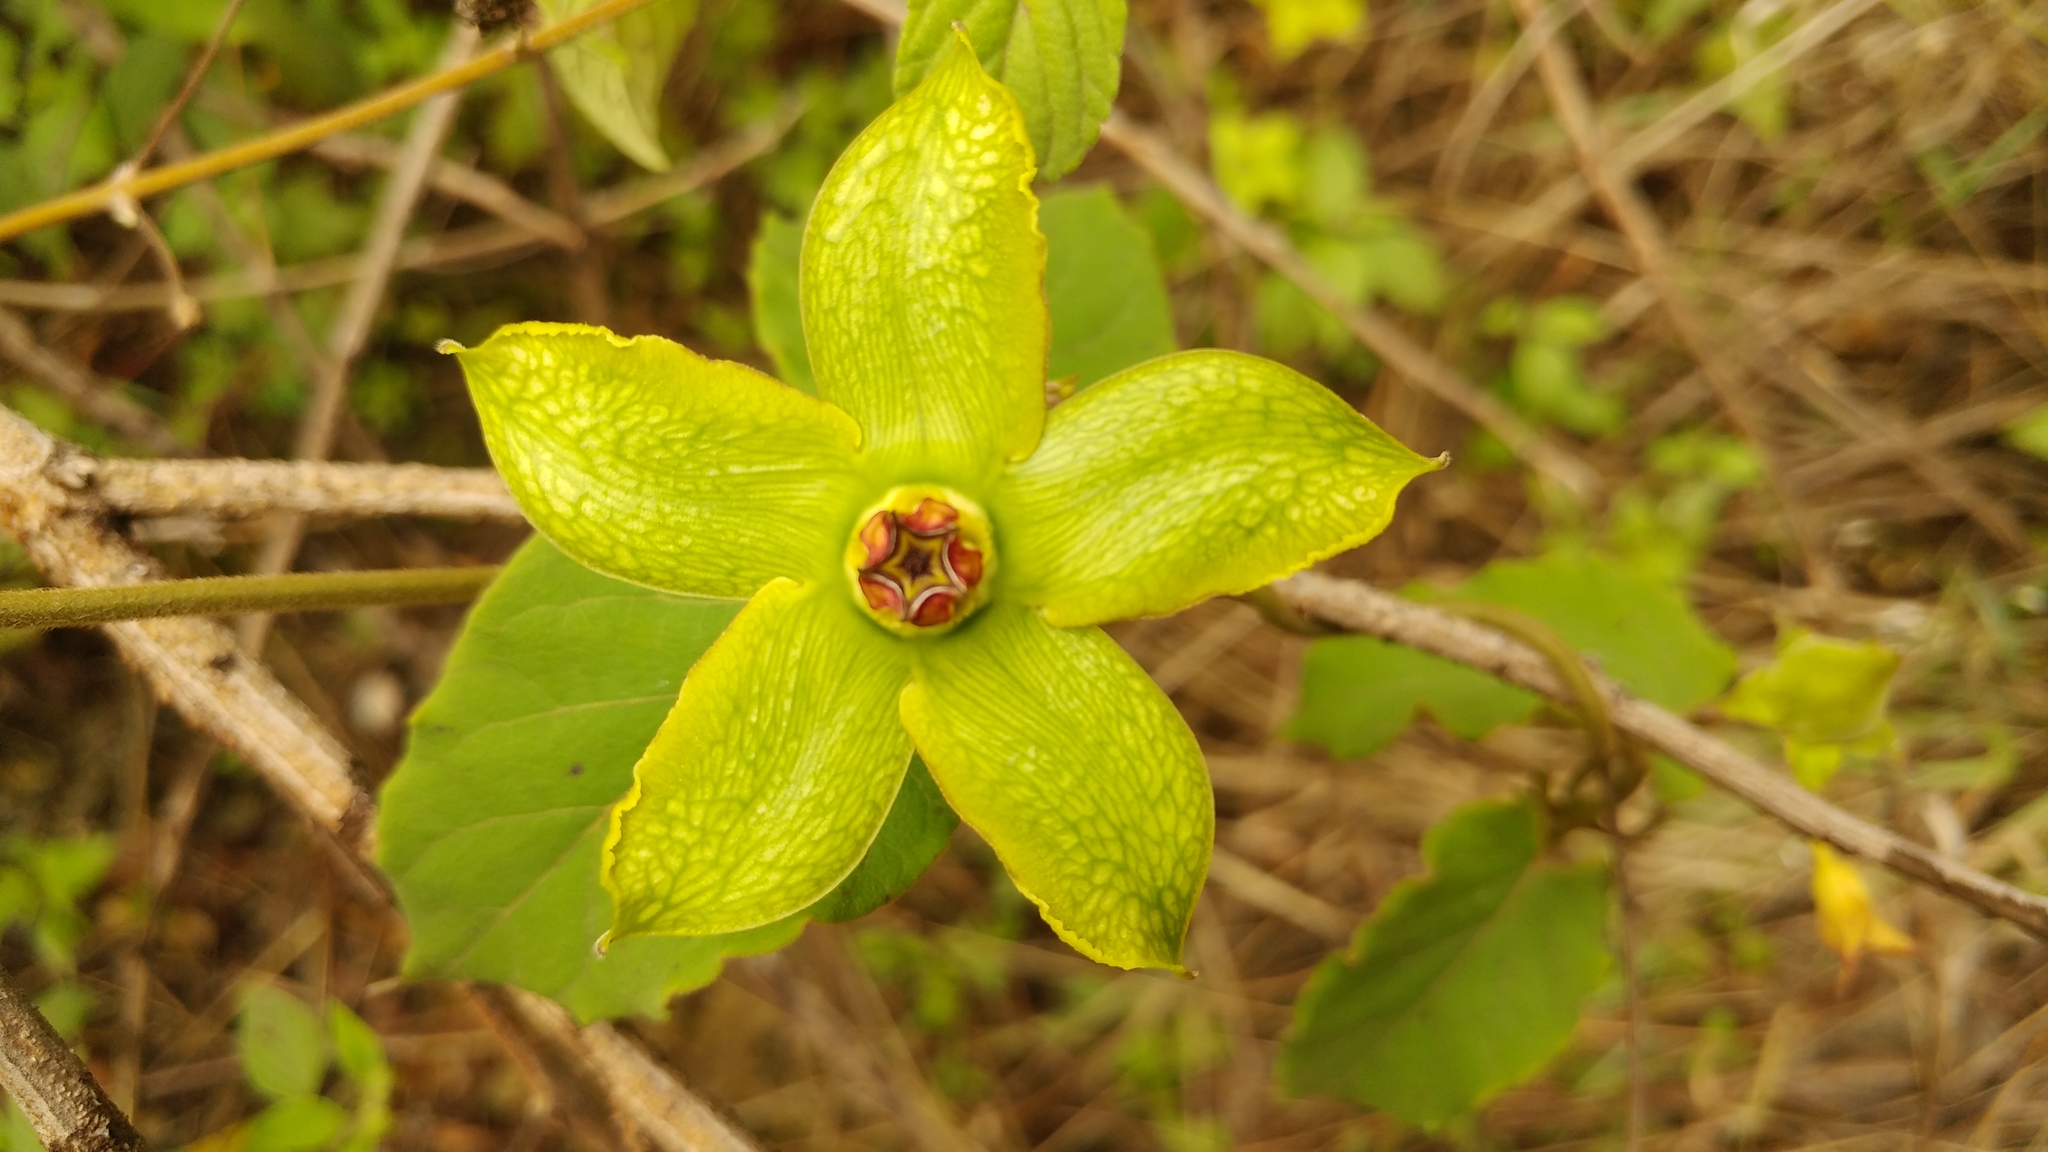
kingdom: Plantae
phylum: Tracheophyta
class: Magnoliopsida
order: Gentianales
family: Apocynaceae
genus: Gonolobus
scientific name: Gonolobus erianthus
